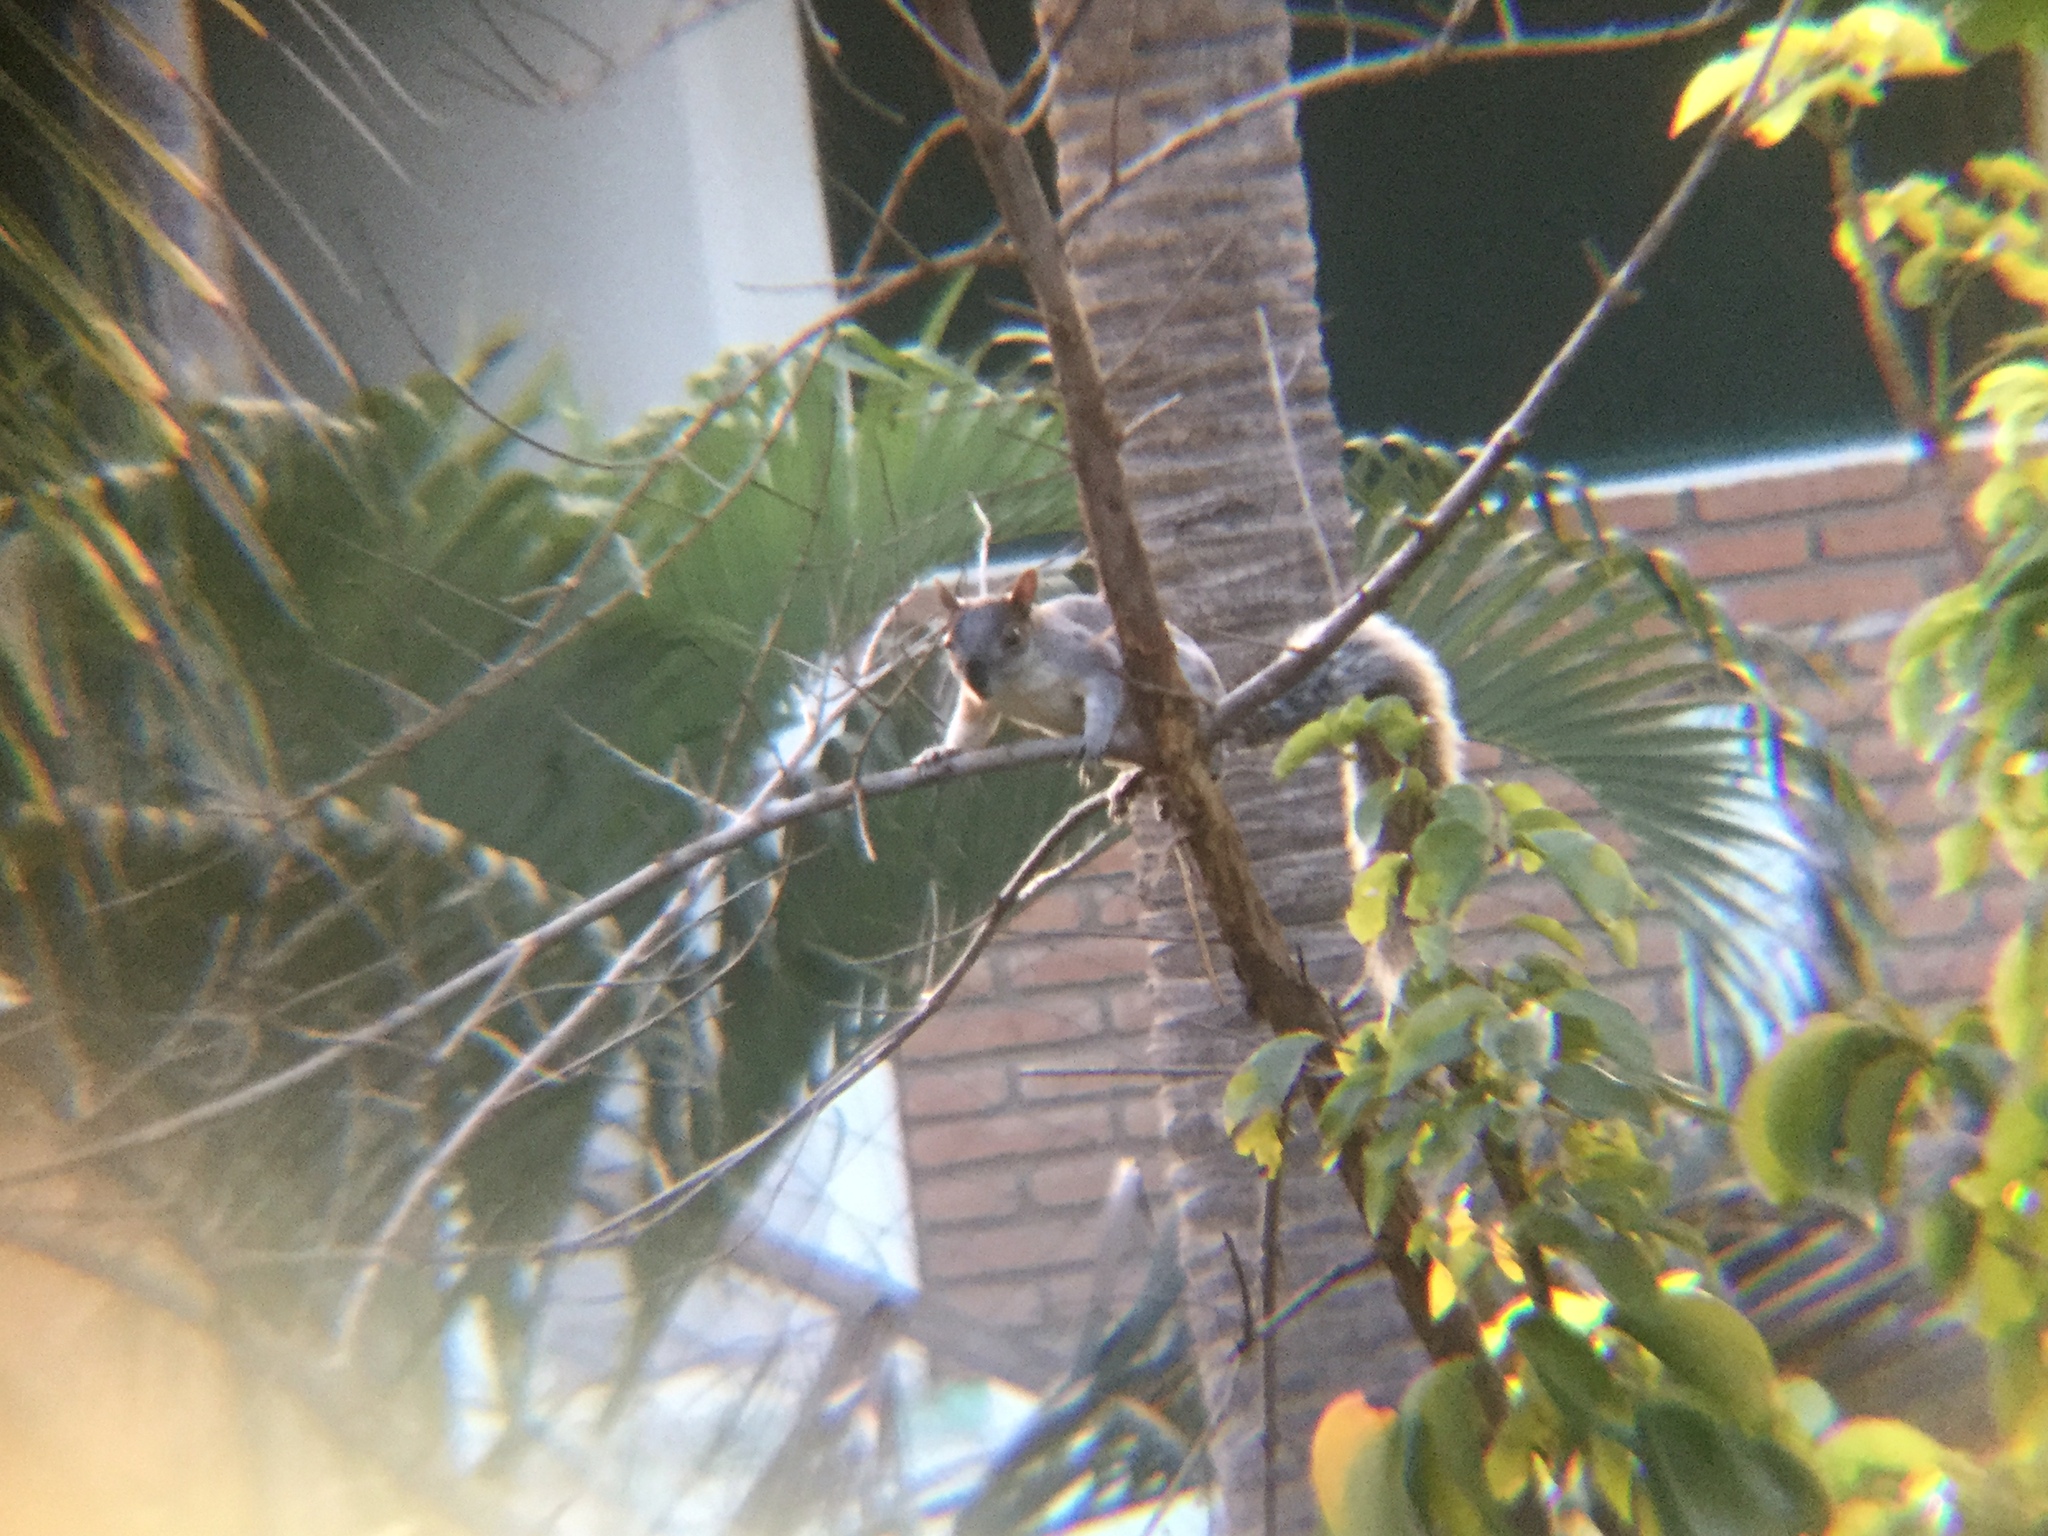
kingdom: Animalia
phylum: Chordata
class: Mammalia
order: Rodentia
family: Sciuridae
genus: Sciurus
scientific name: Sciurus aureogaster
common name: Red-bellied squirrel
